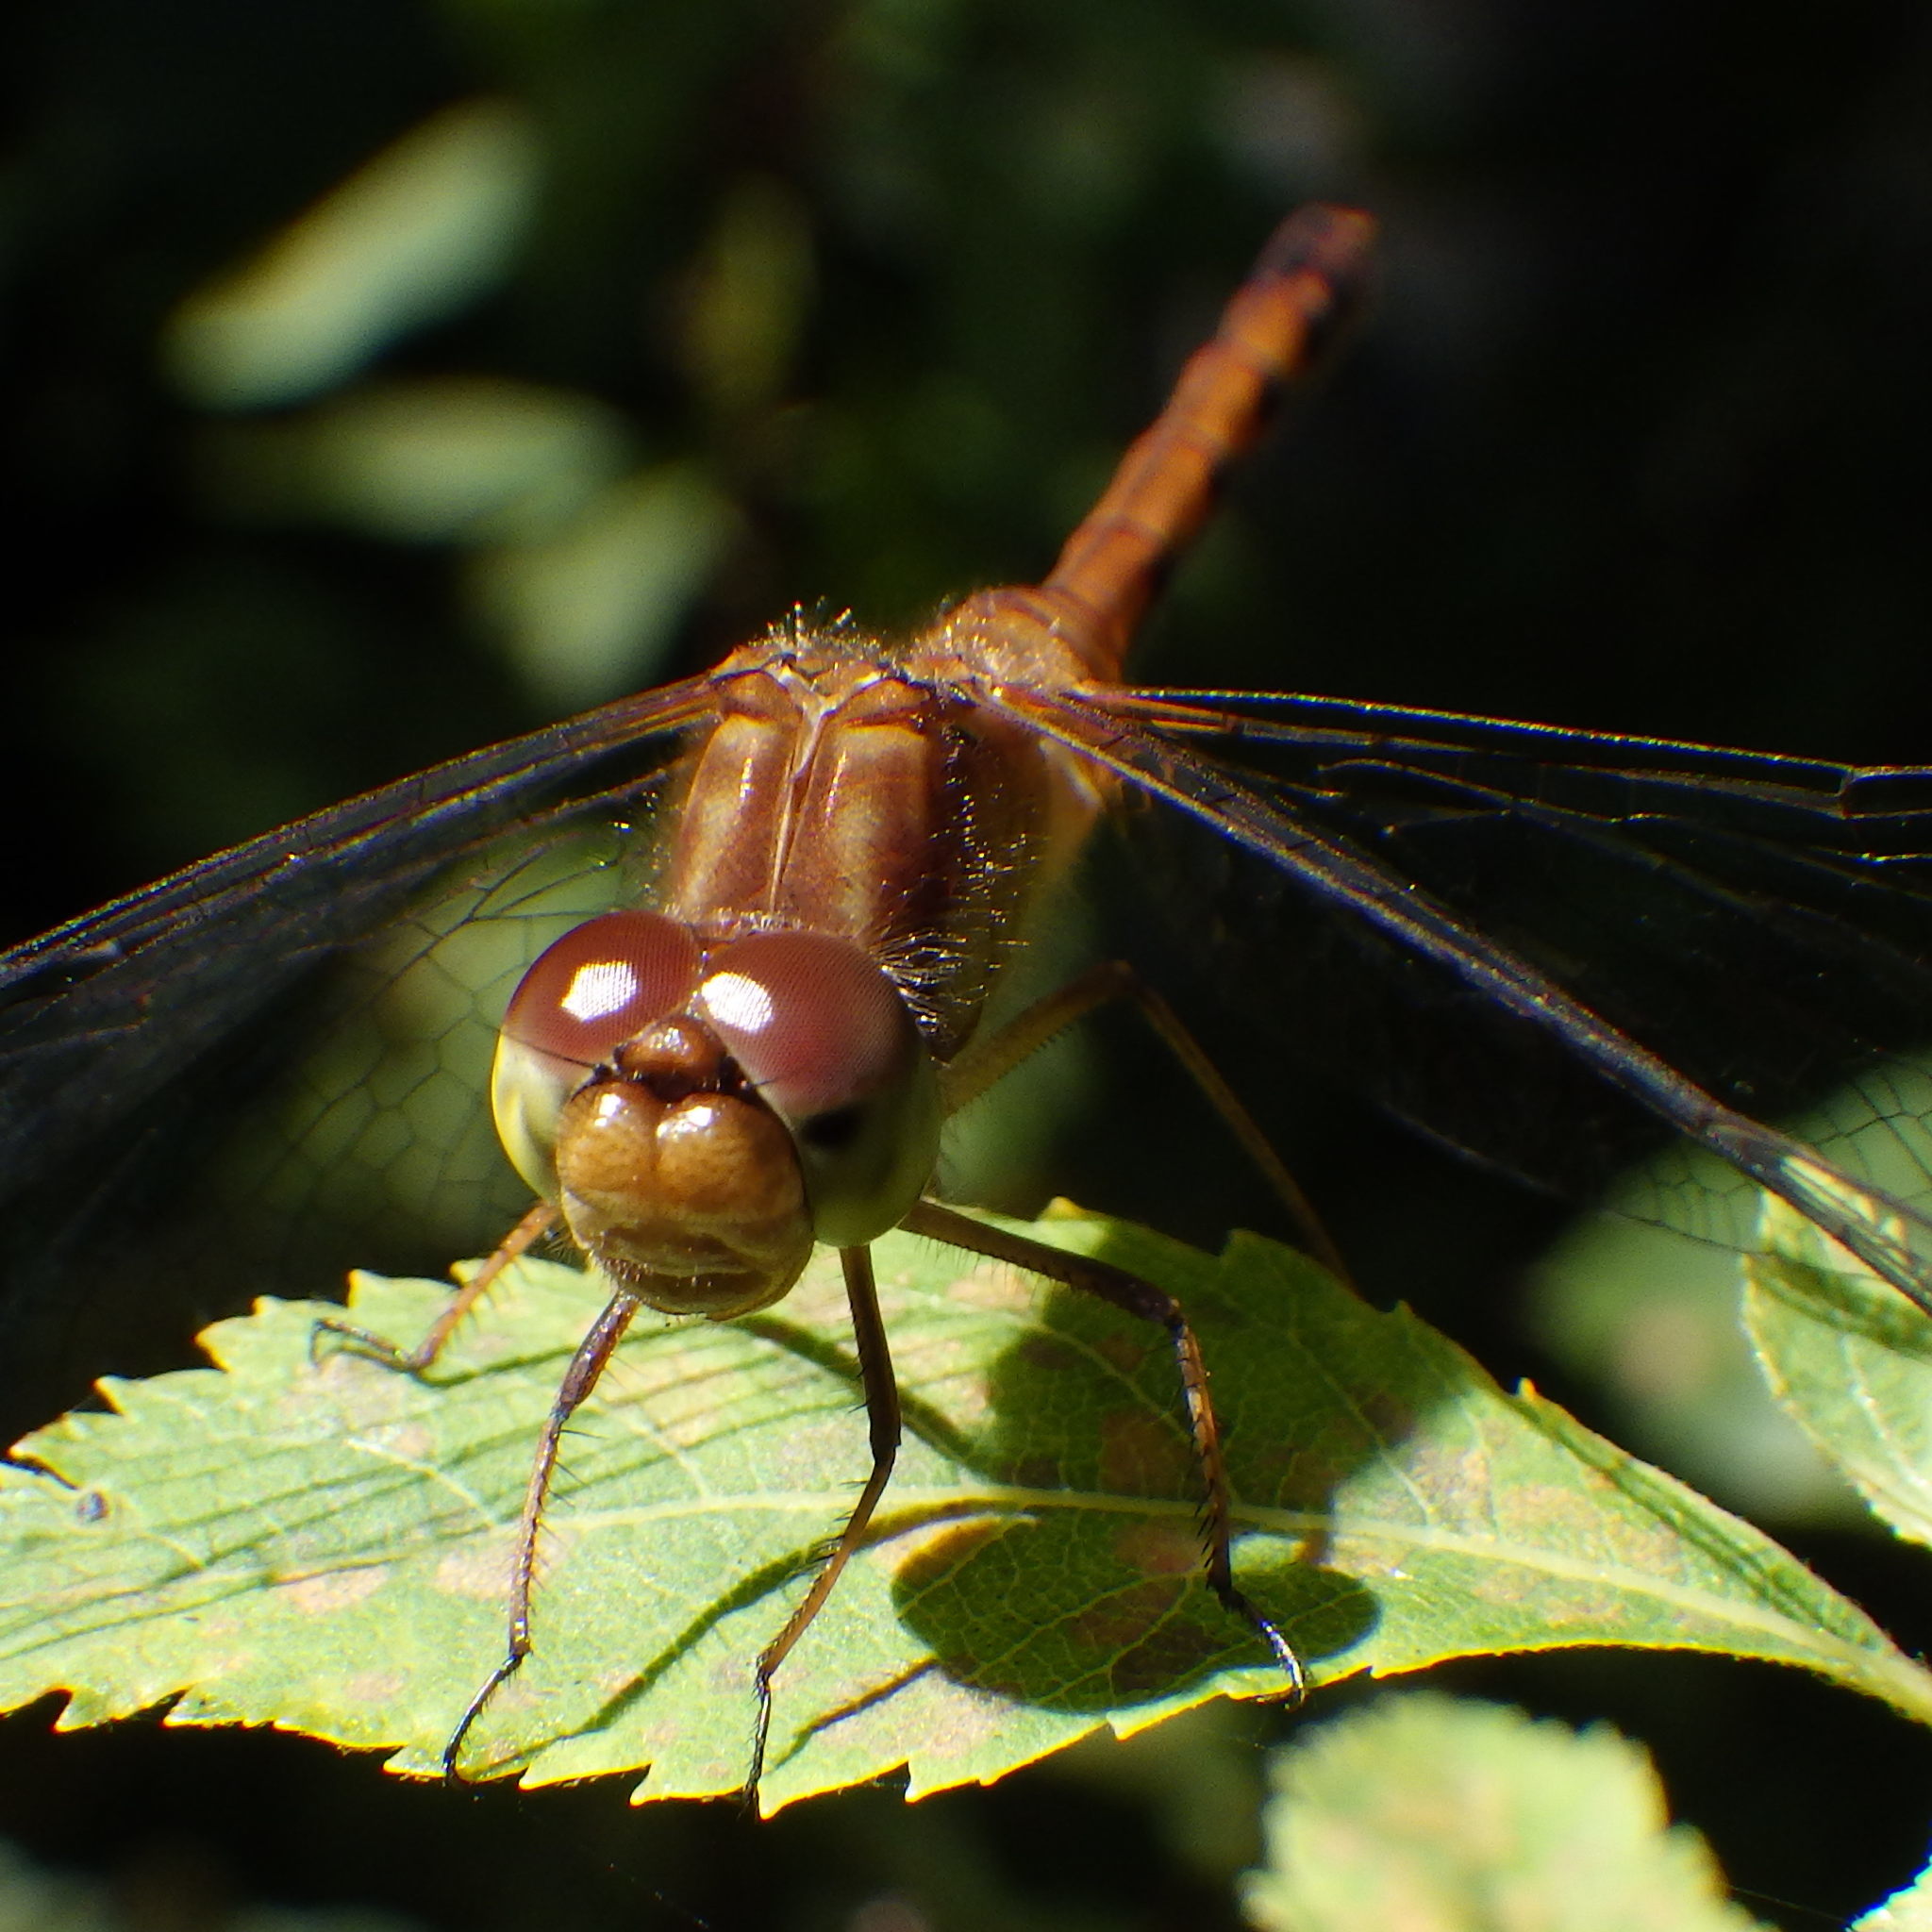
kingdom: Animalia
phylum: Arthropoda
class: Insecta
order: Odonata
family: Libellulidae
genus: Sympetrum
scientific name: Sympetrum vicinum
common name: Autumn meadowhawk
